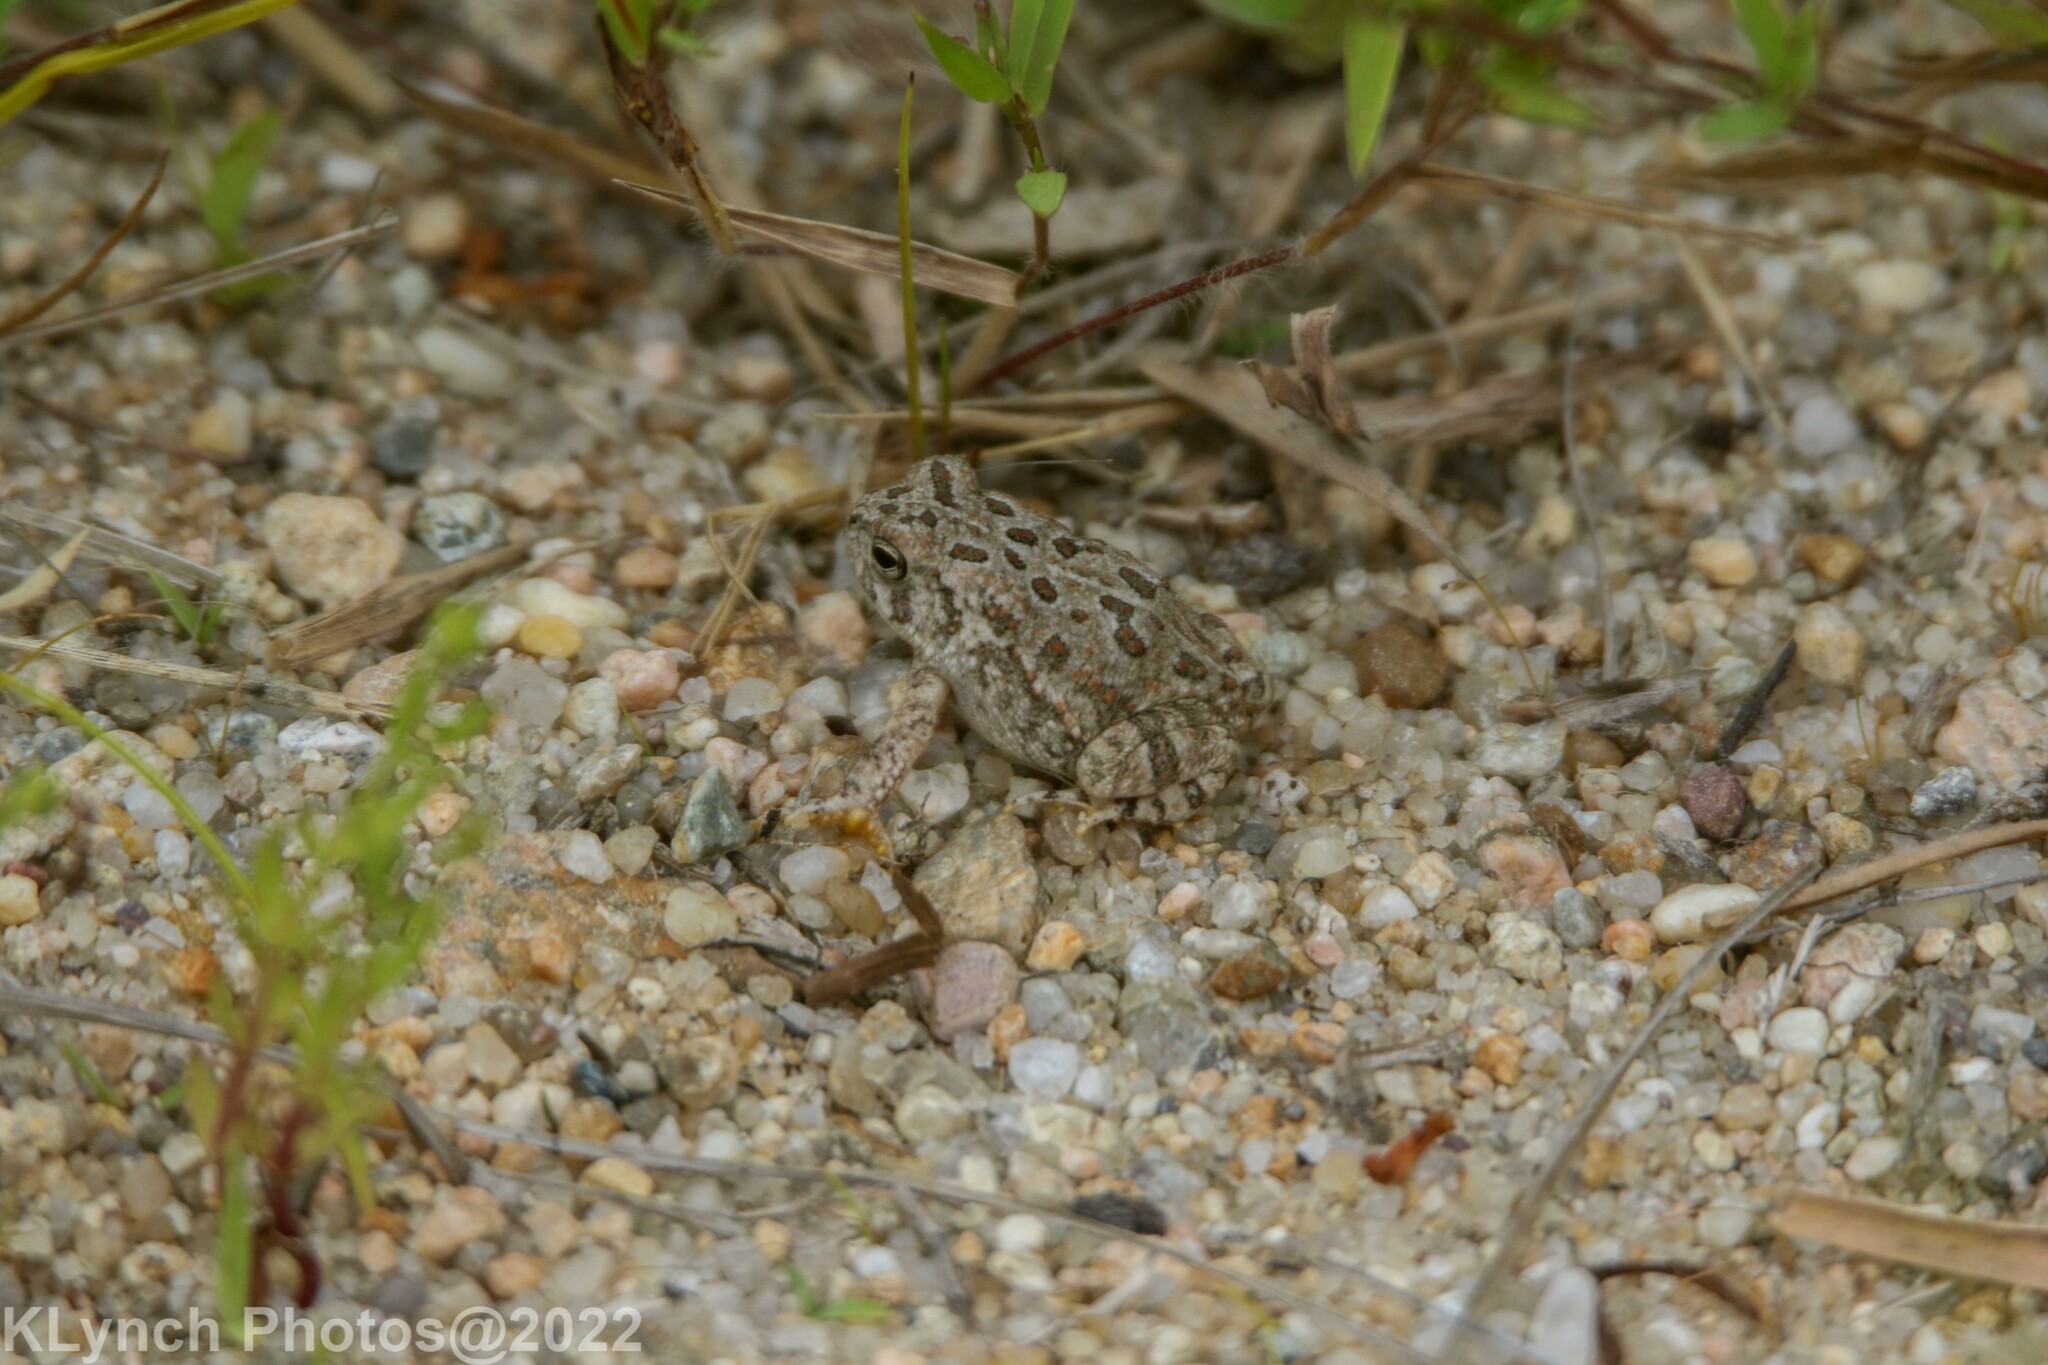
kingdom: Animalia
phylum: Chordata
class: Amphibia
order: Anura
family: Bufonidae
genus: Anaxyrus
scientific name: Anaxyrus fowleri
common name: Fowler's toad
